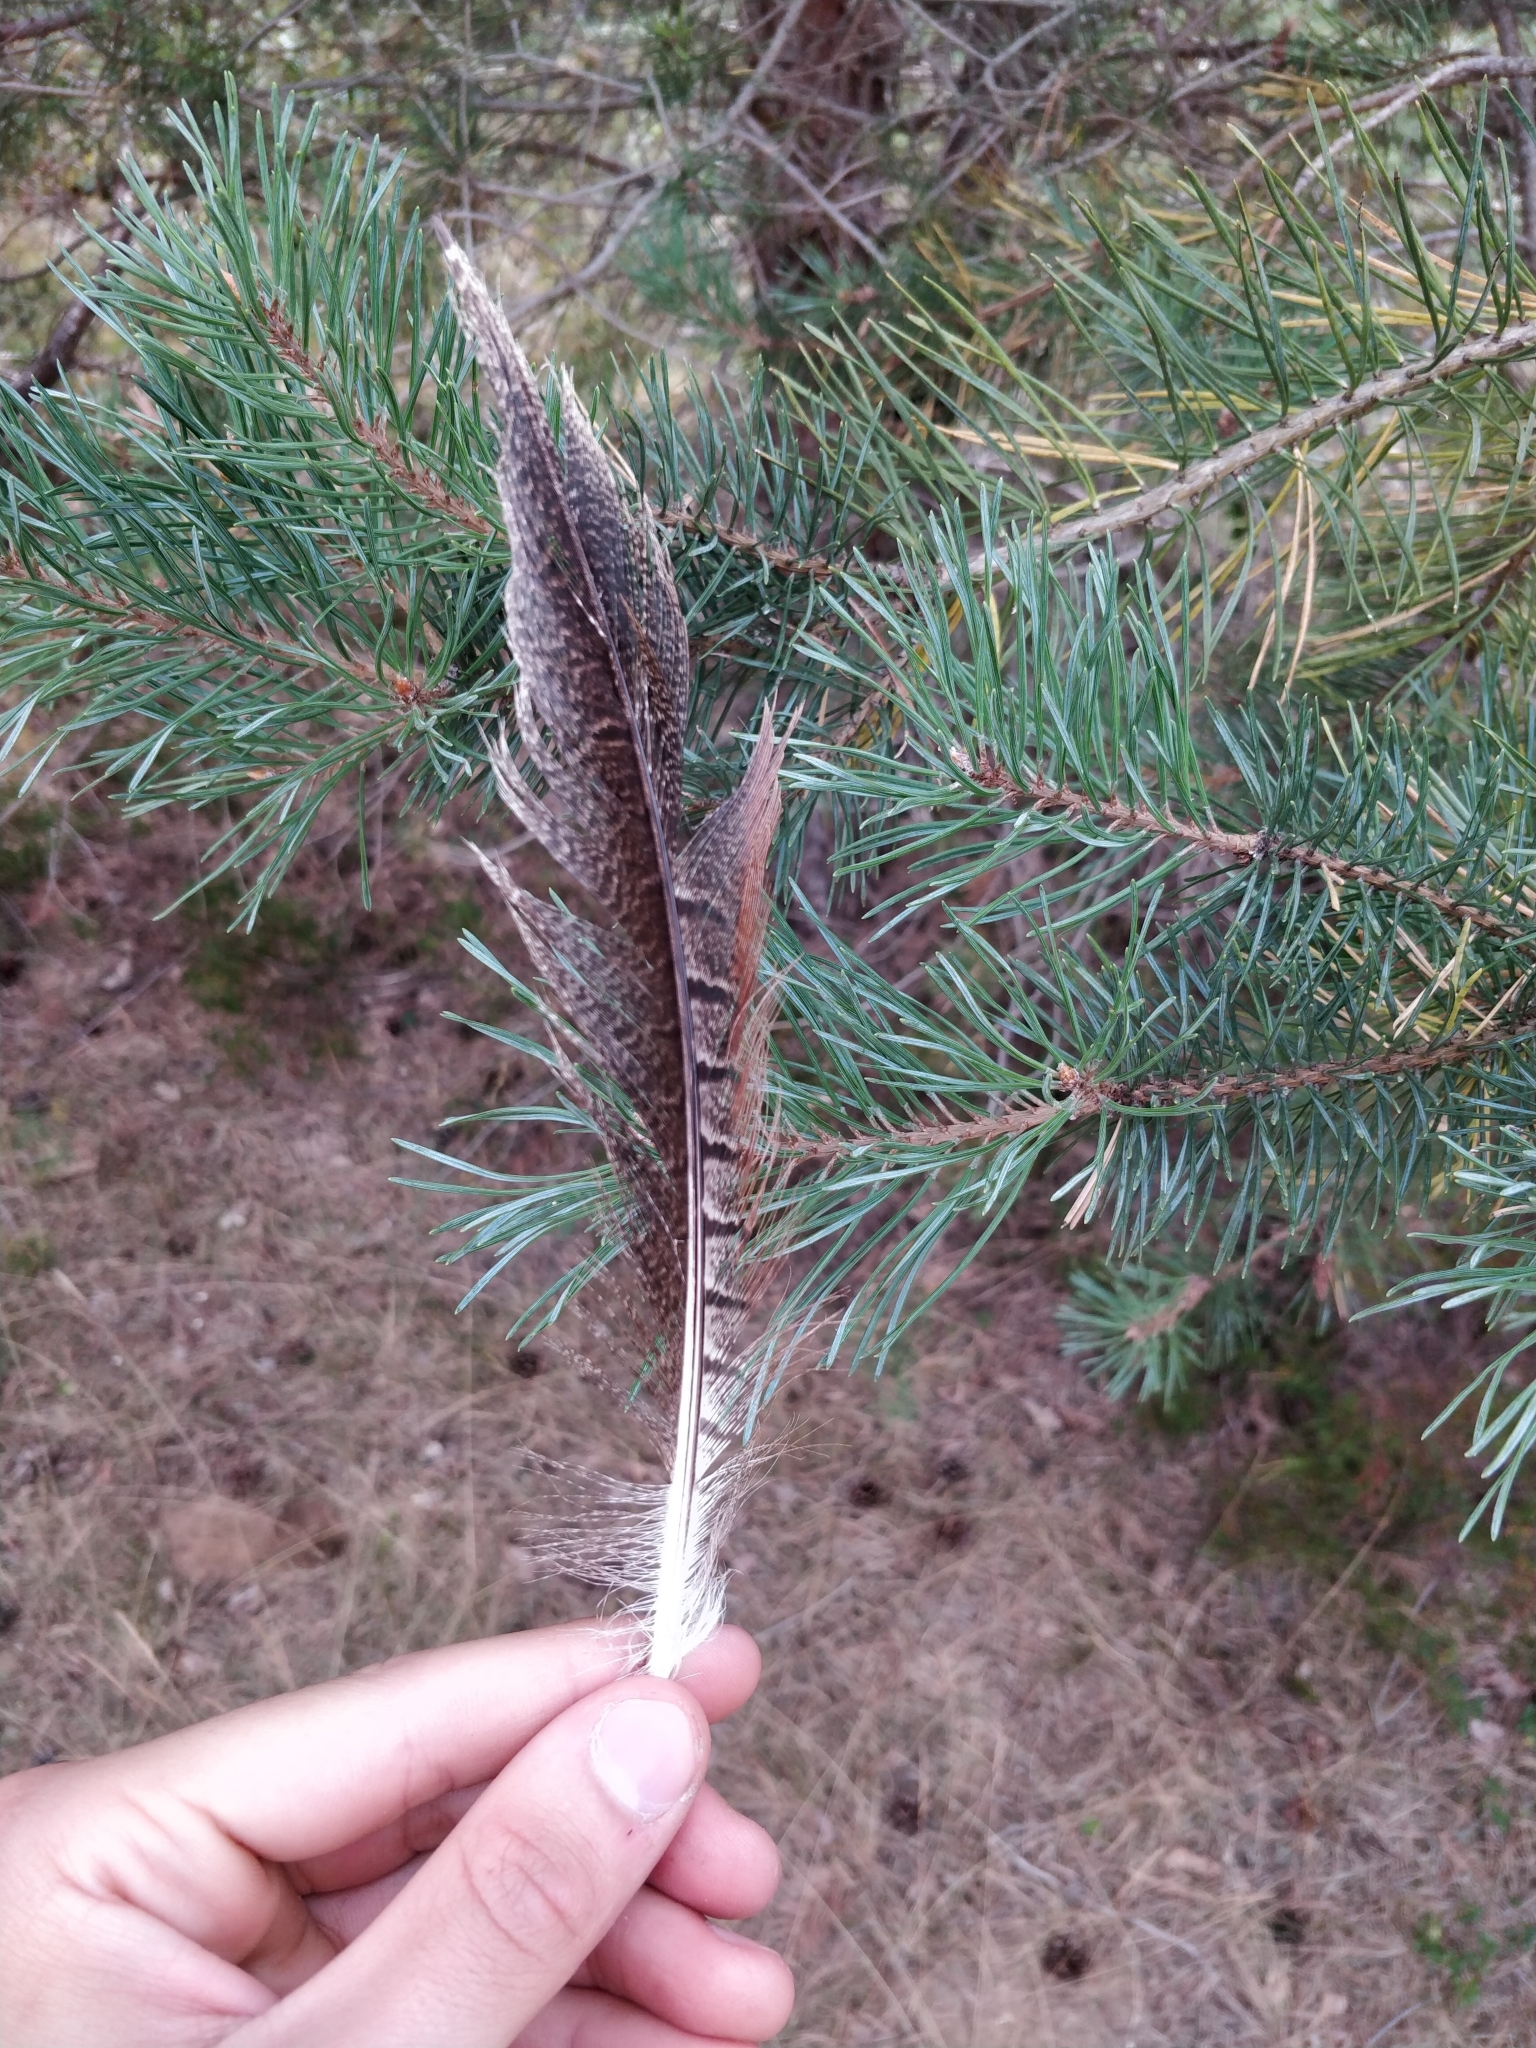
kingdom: Animalia
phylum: Chordata
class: Aves
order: Galliformes
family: Phasianidae
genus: Phasianus
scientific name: Phasianus colchicus
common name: Common pheasant
